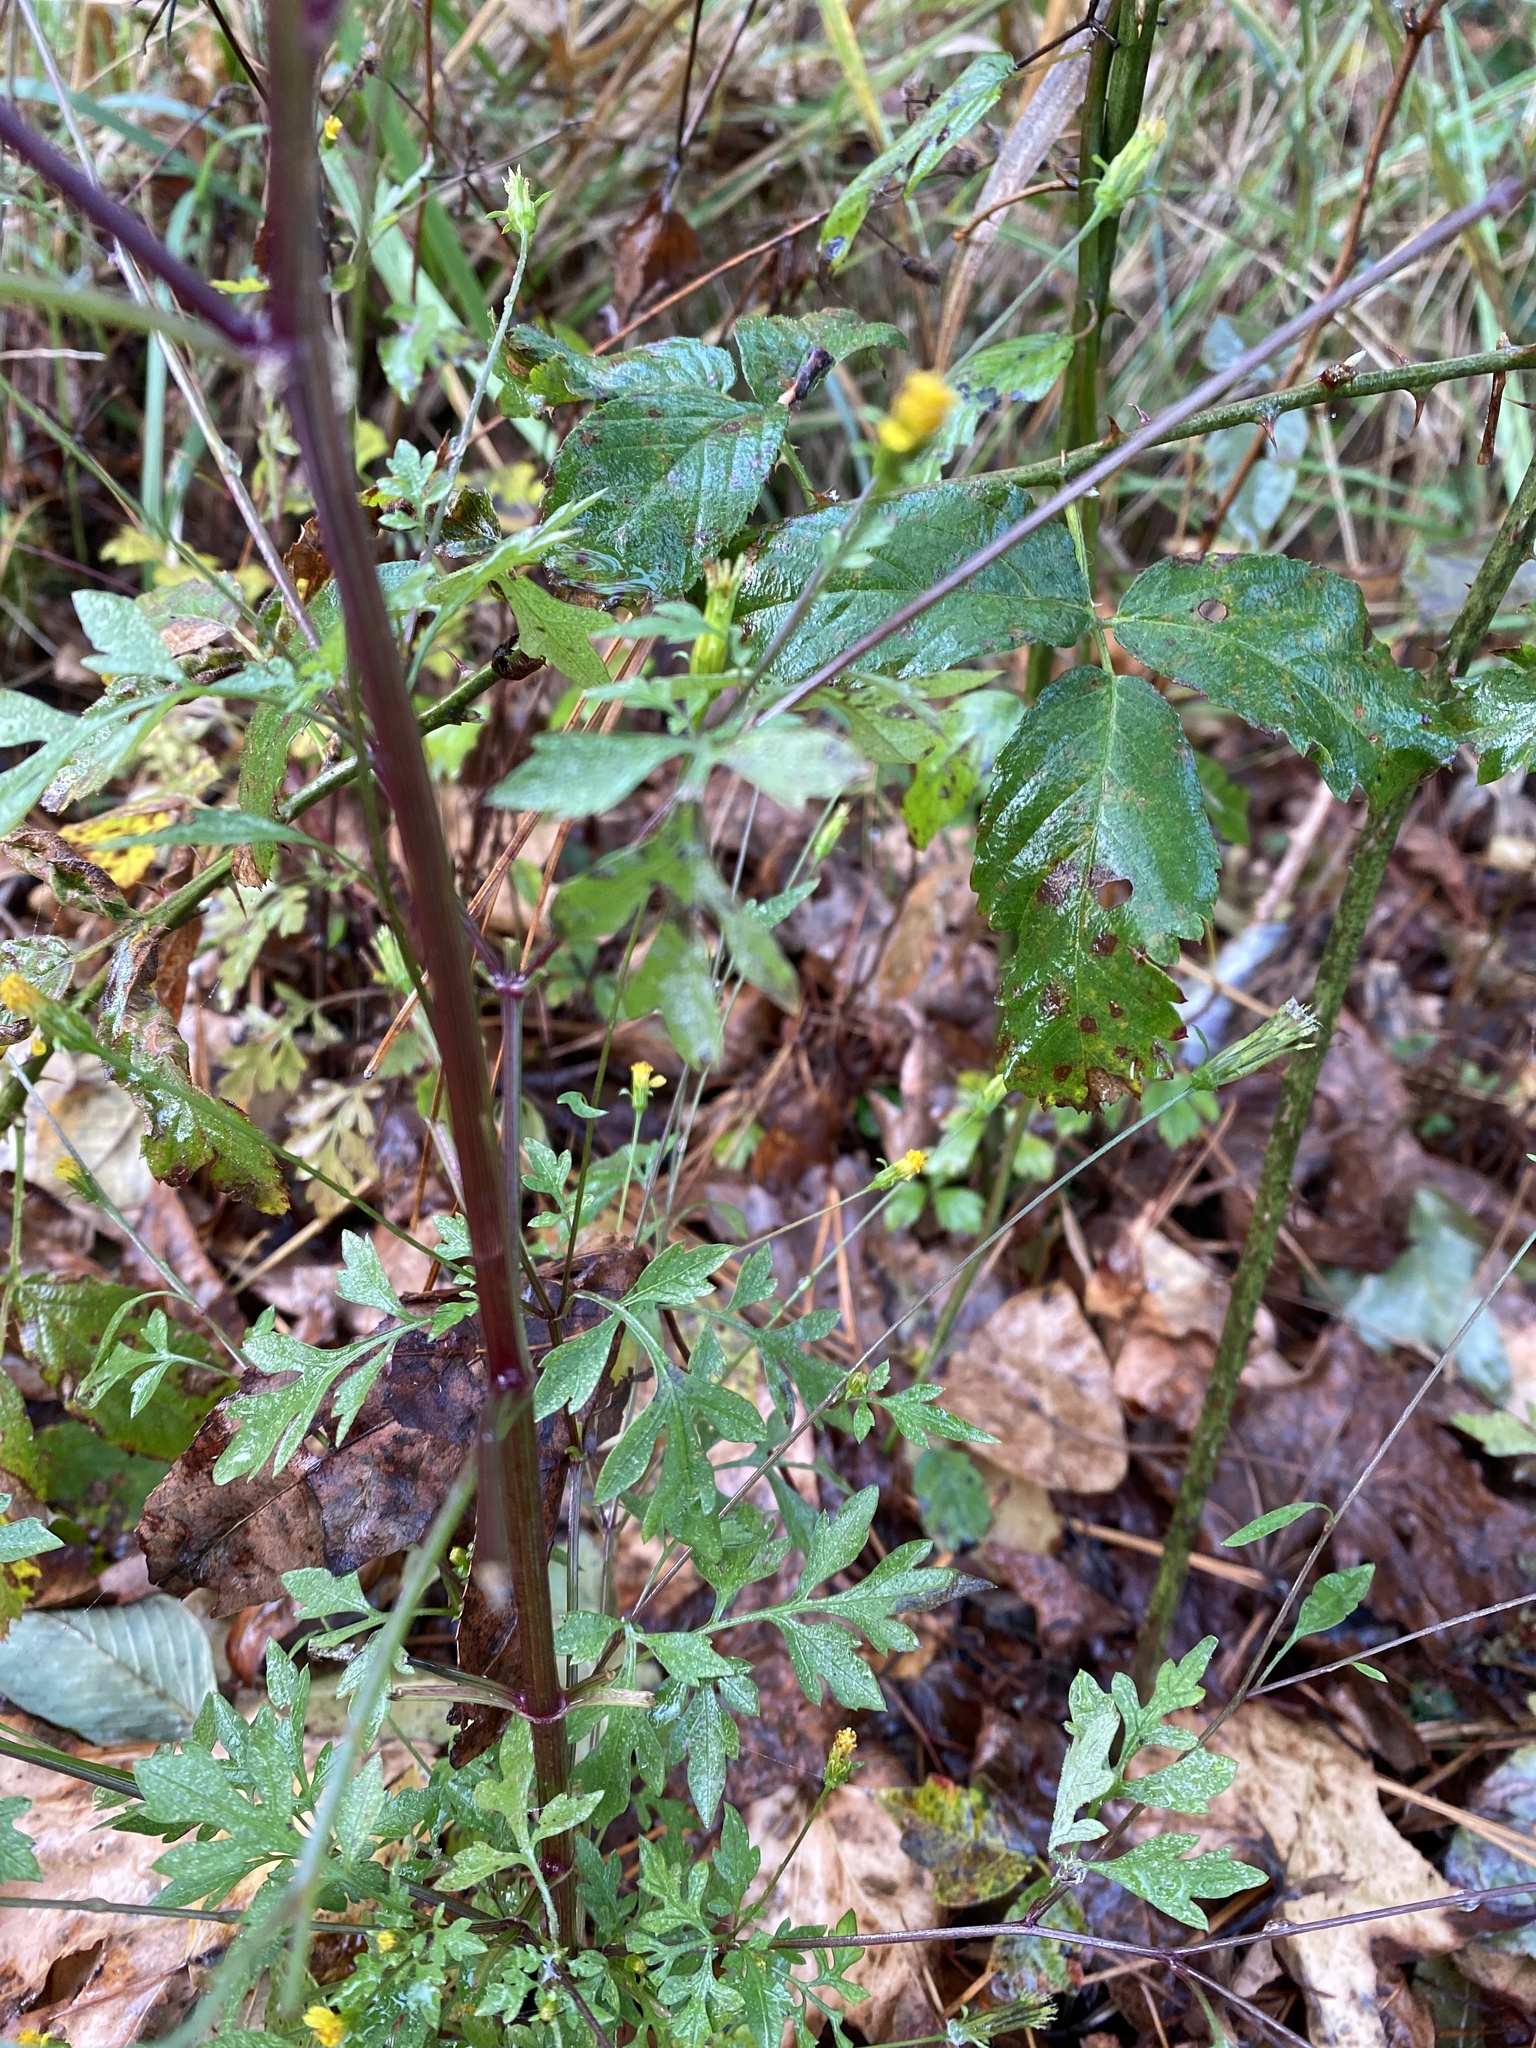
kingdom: Plantae
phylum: Tracheophyta
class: Magnoliopsida
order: Asterales
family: Asteraceae
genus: Bidens
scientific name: Bidens bipinnata
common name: Spanish-needles
